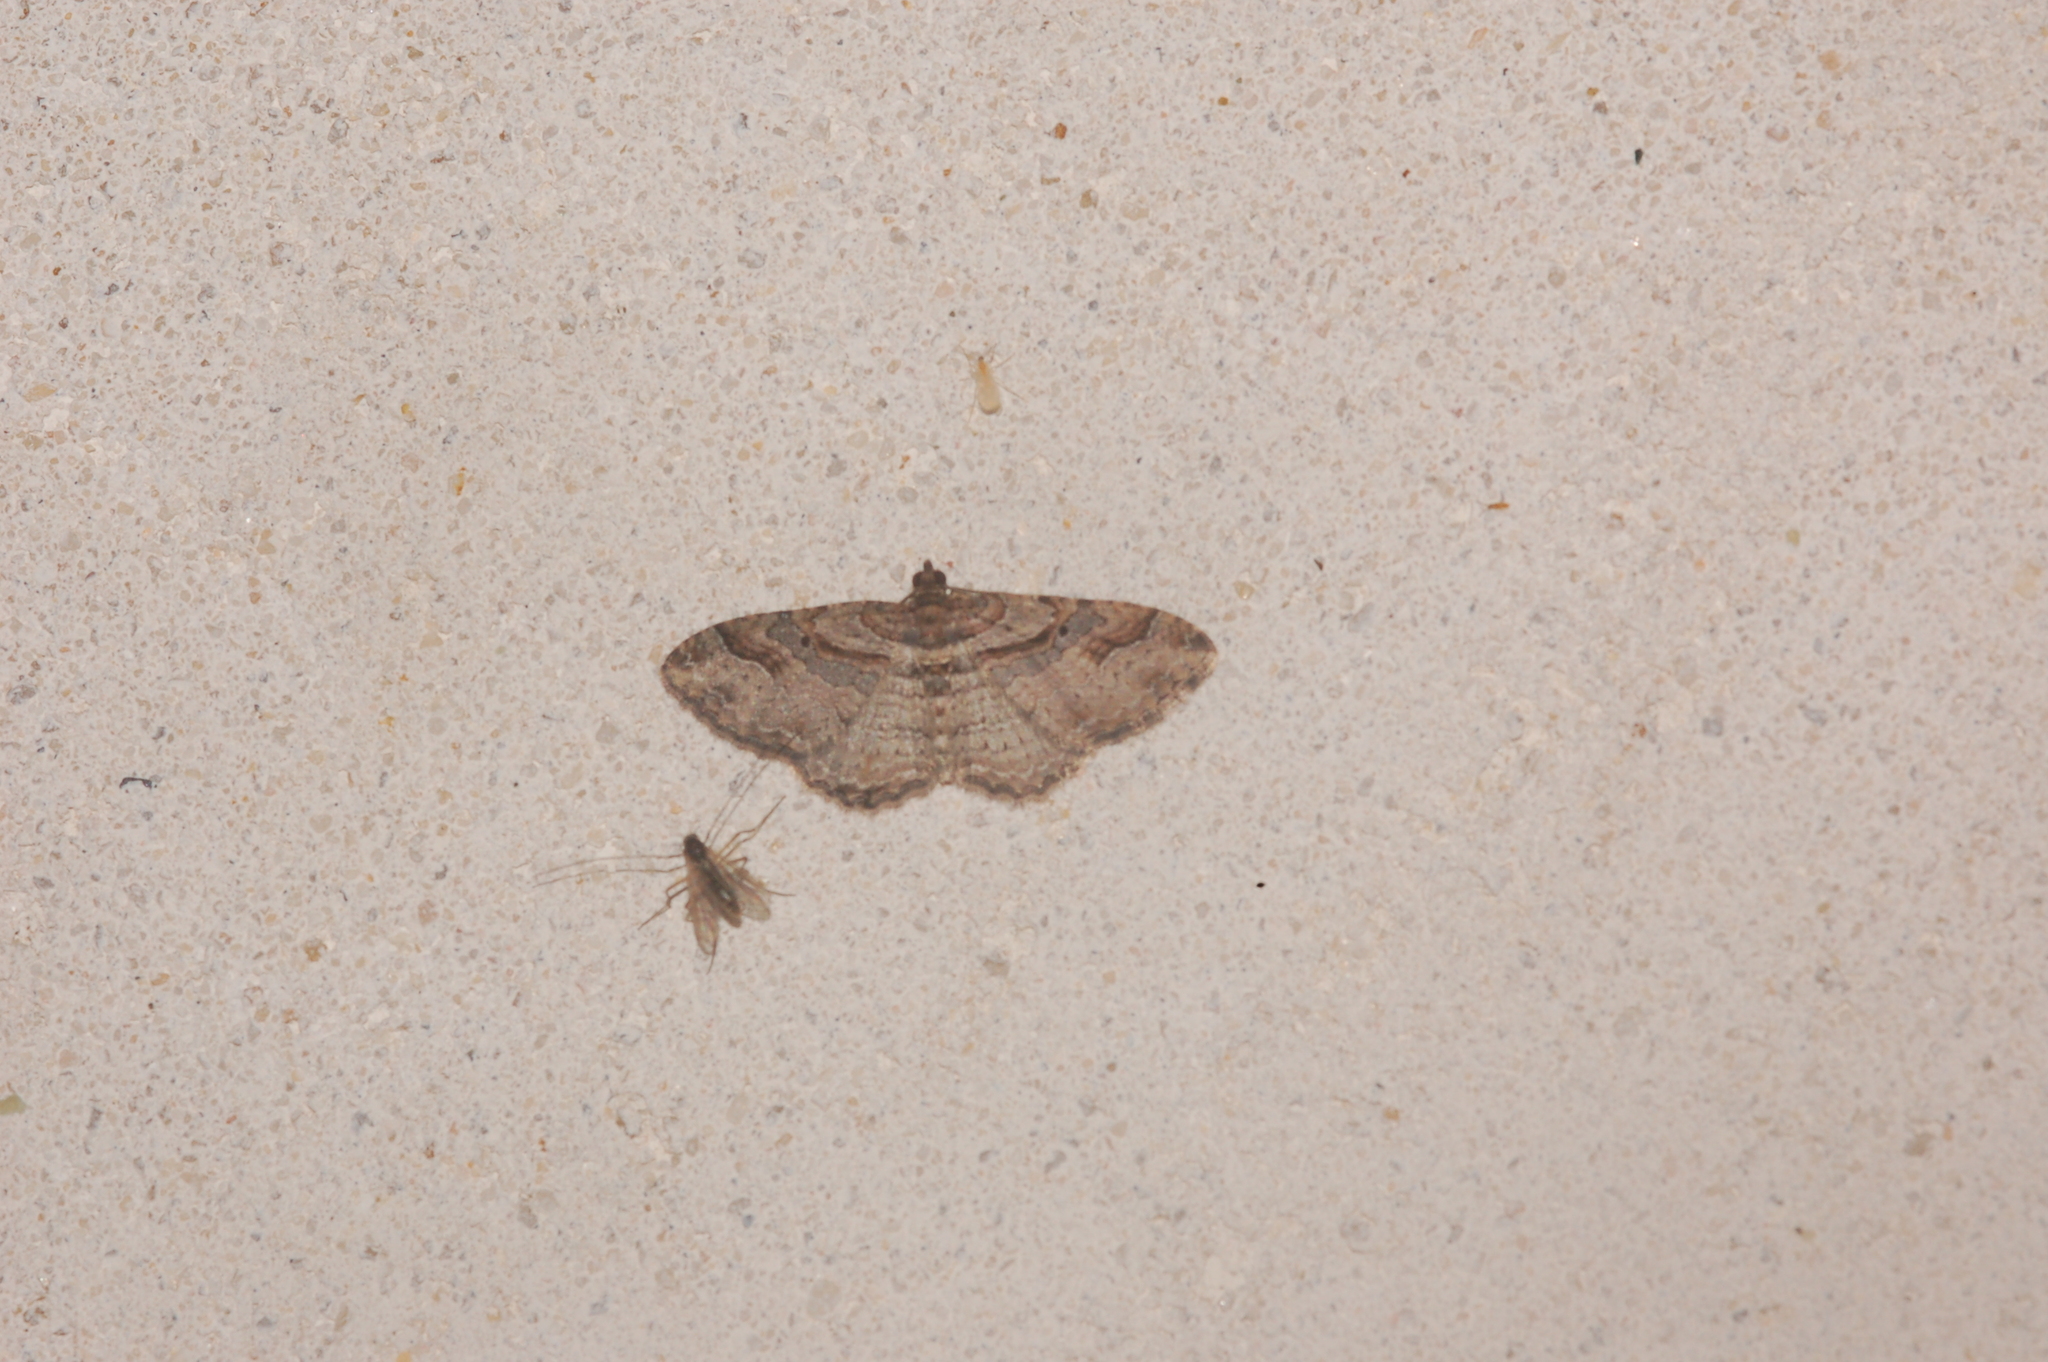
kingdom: Animalia
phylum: Arthropoda
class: Insecta
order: Lepidoptera
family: Geometridae
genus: Costaconvexa
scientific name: Costaconvexa centrostrigaria
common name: Bent-line carpet
